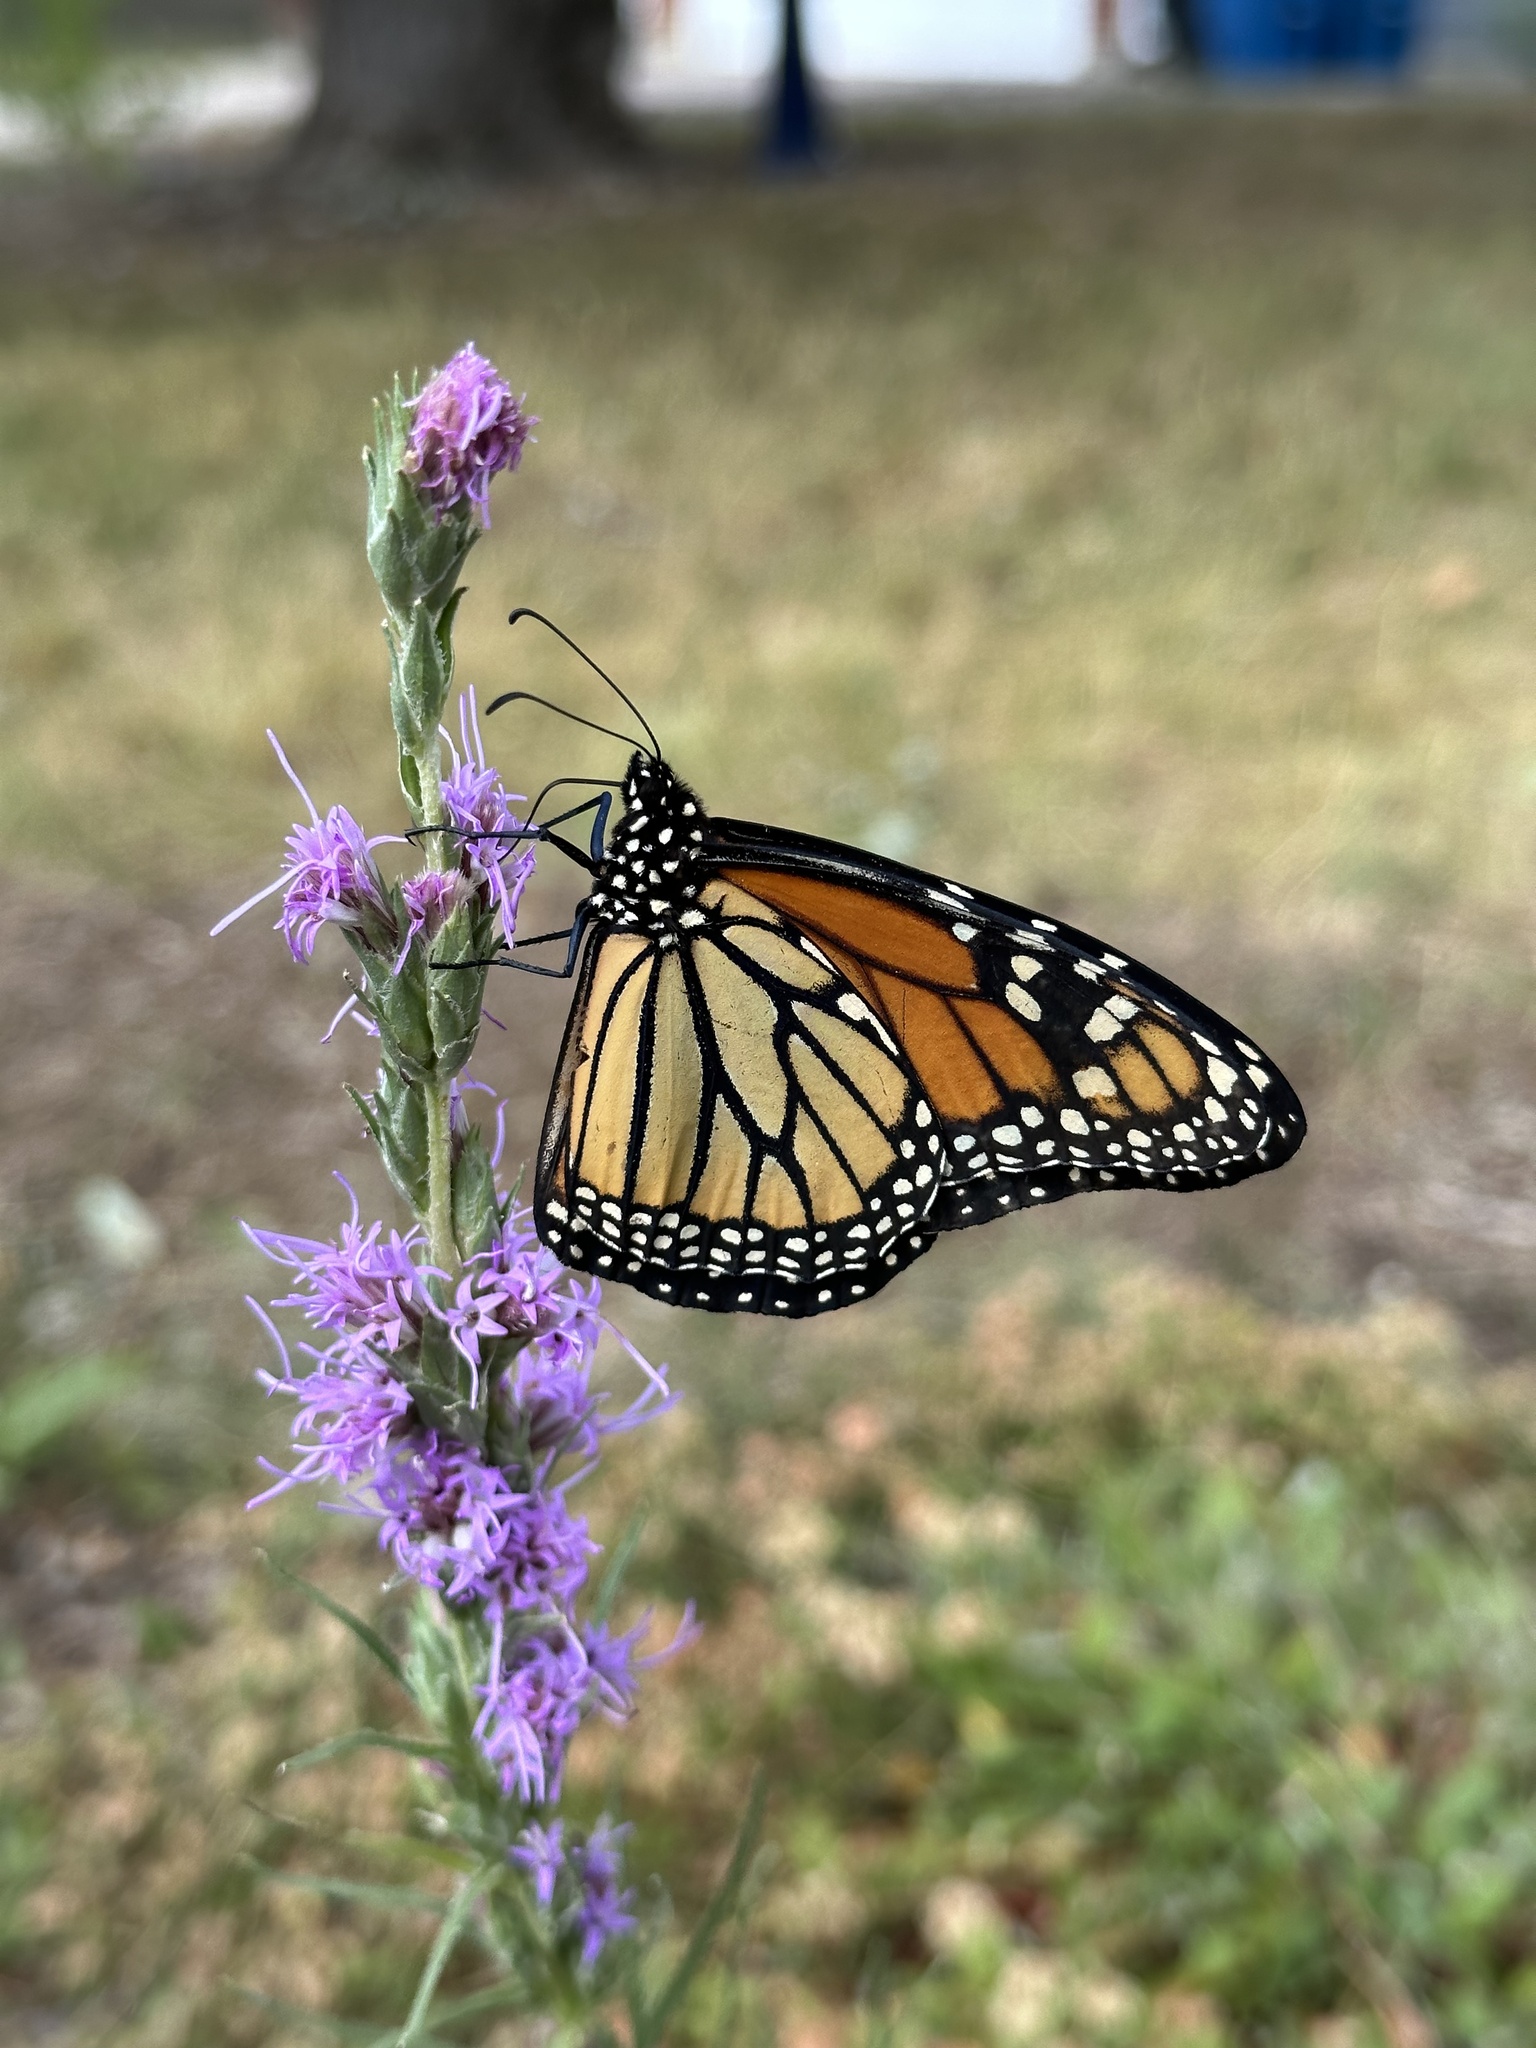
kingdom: Animalia
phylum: Arthropoda
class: Insecta
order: Lepidoptera
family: Nymphalidae
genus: Danaus
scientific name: Danaus plexippus
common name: Monarch
